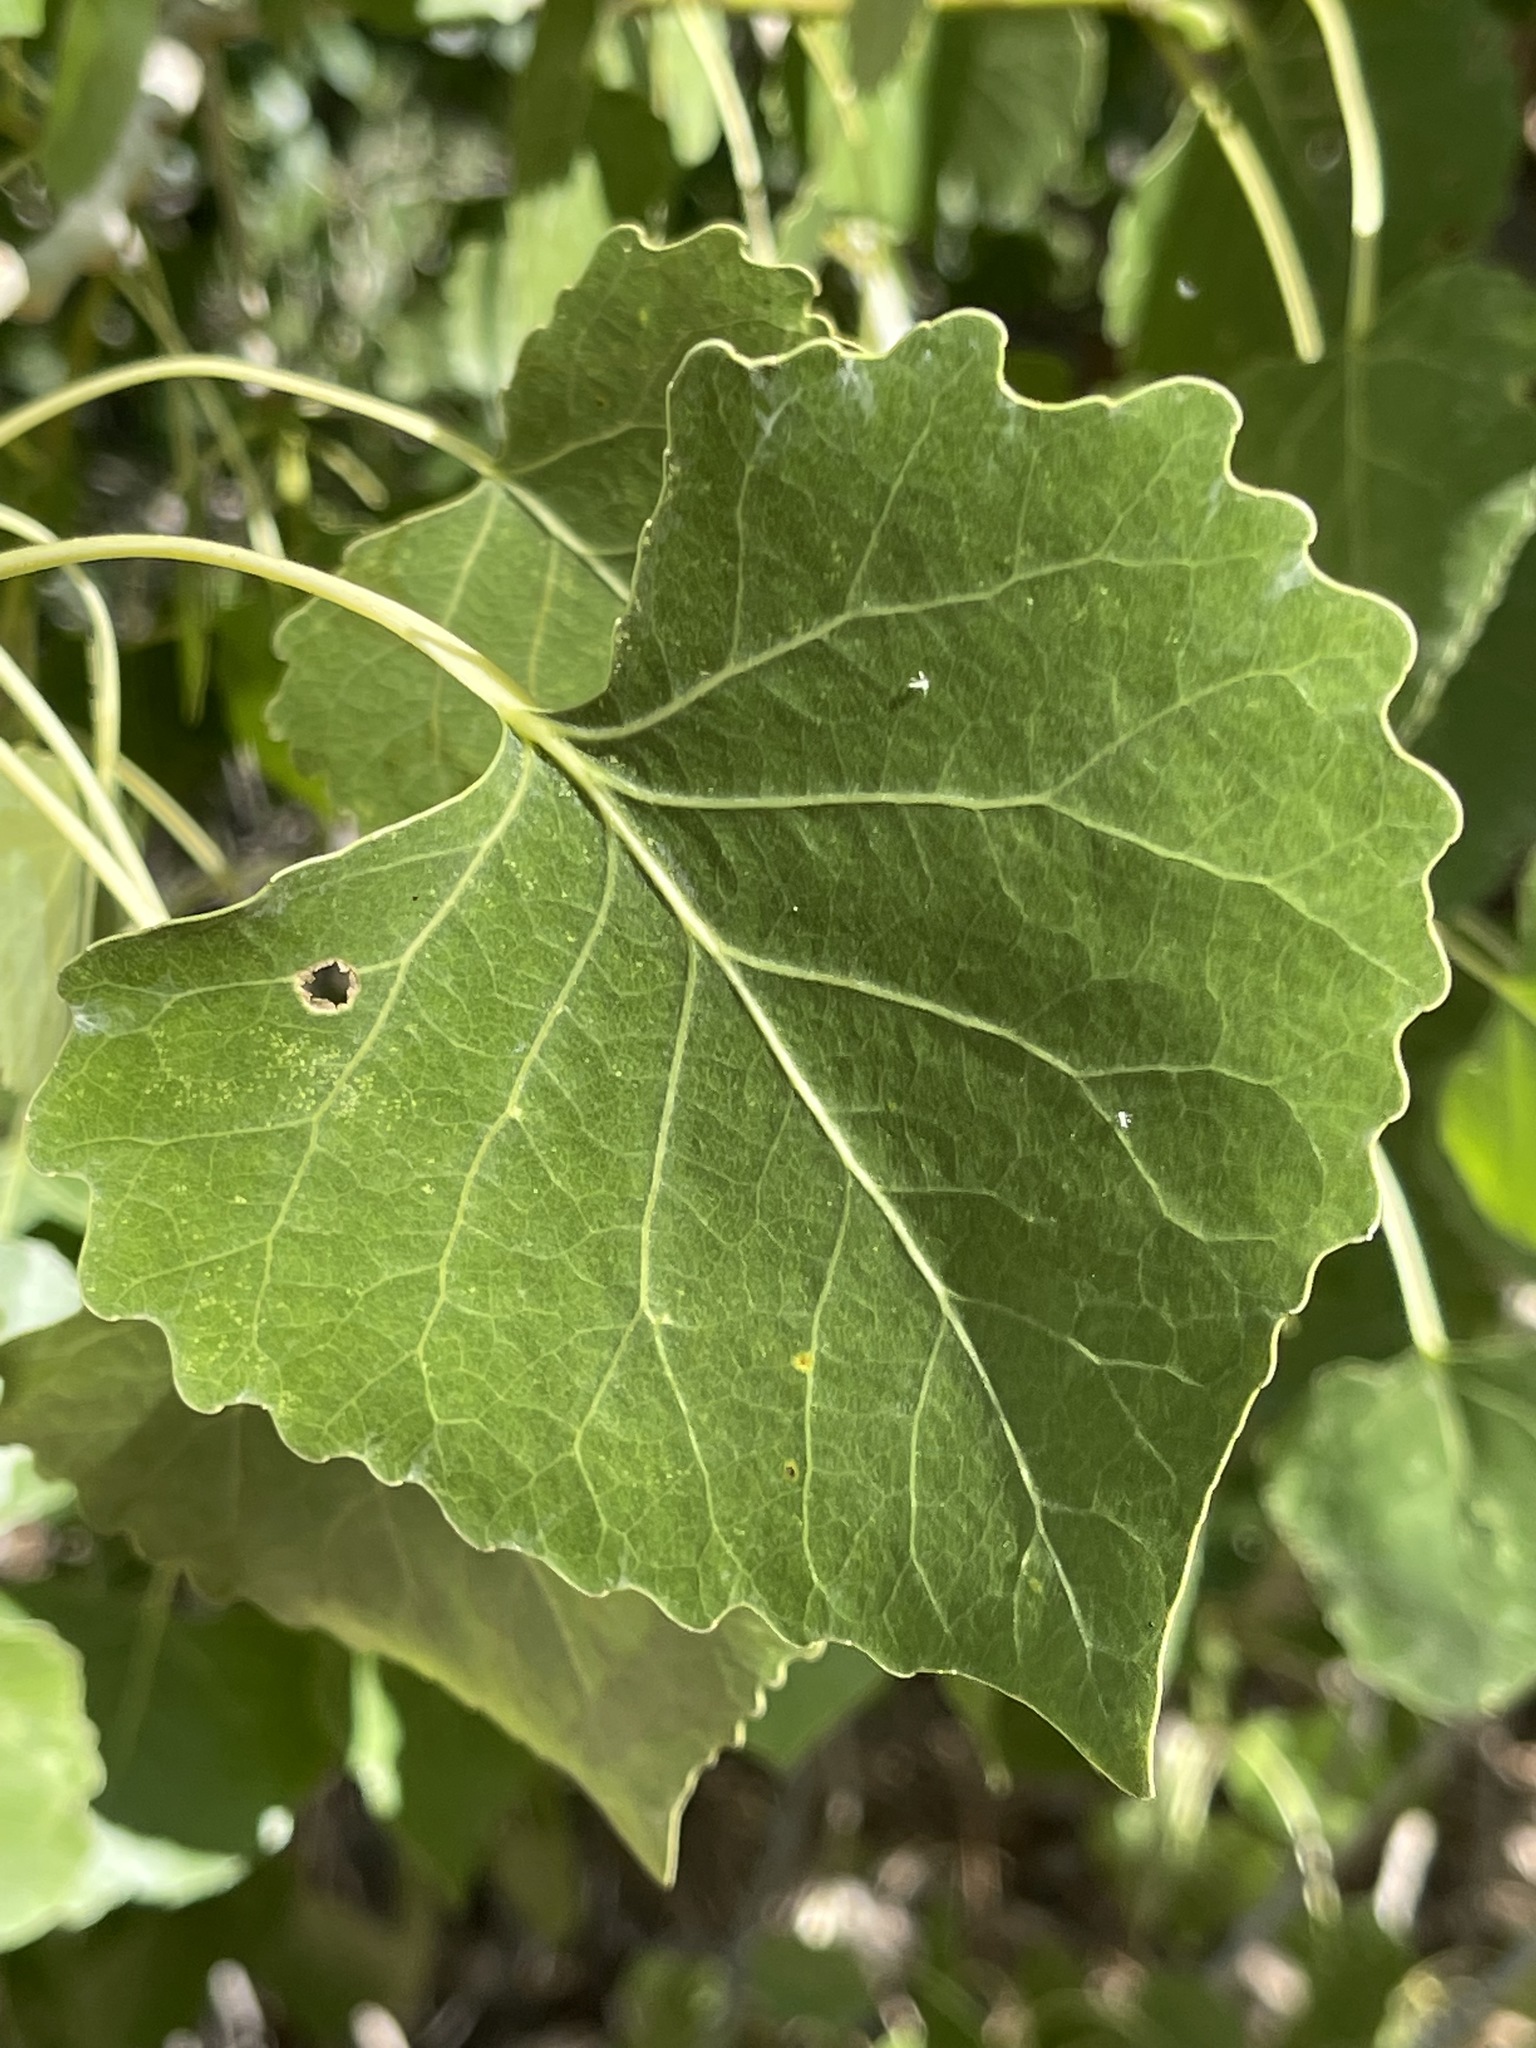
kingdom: Plantae
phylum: Tracheophyta
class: Magnoliopsida
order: Malpighiales
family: Salicaceae
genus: Populus
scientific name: Populus fremontii
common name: Fremont's cottonwood
